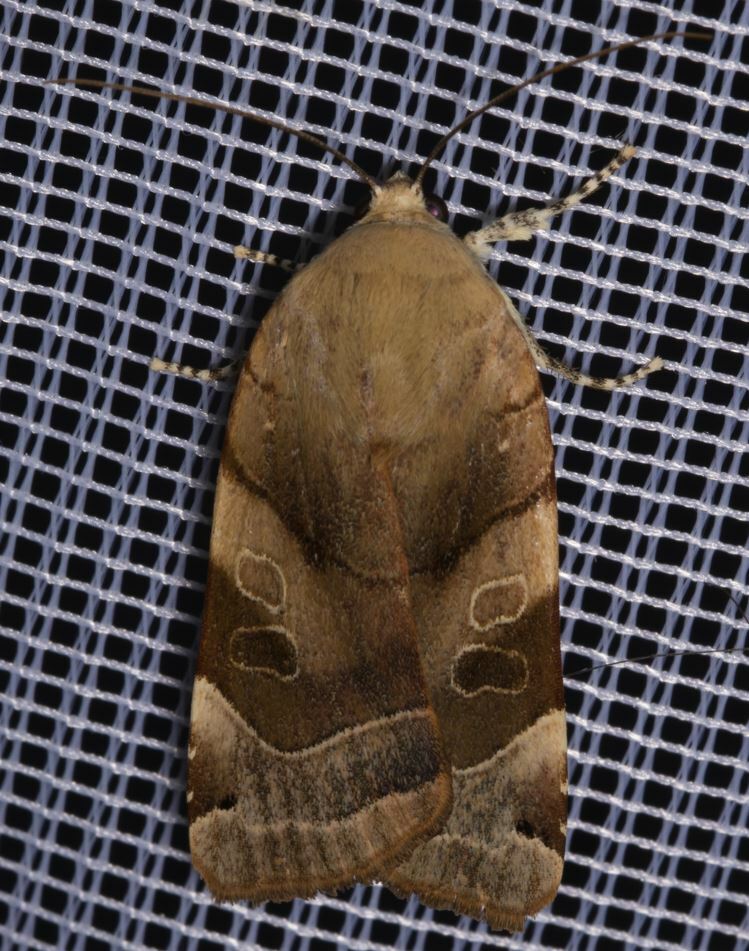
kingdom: Animalia
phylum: Arthropoda
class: Insecta
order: Lepidoptera
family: Noctuidae
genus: Noctua
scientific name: Noctua fimbriata
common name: Broad-bordered yellow underwing
